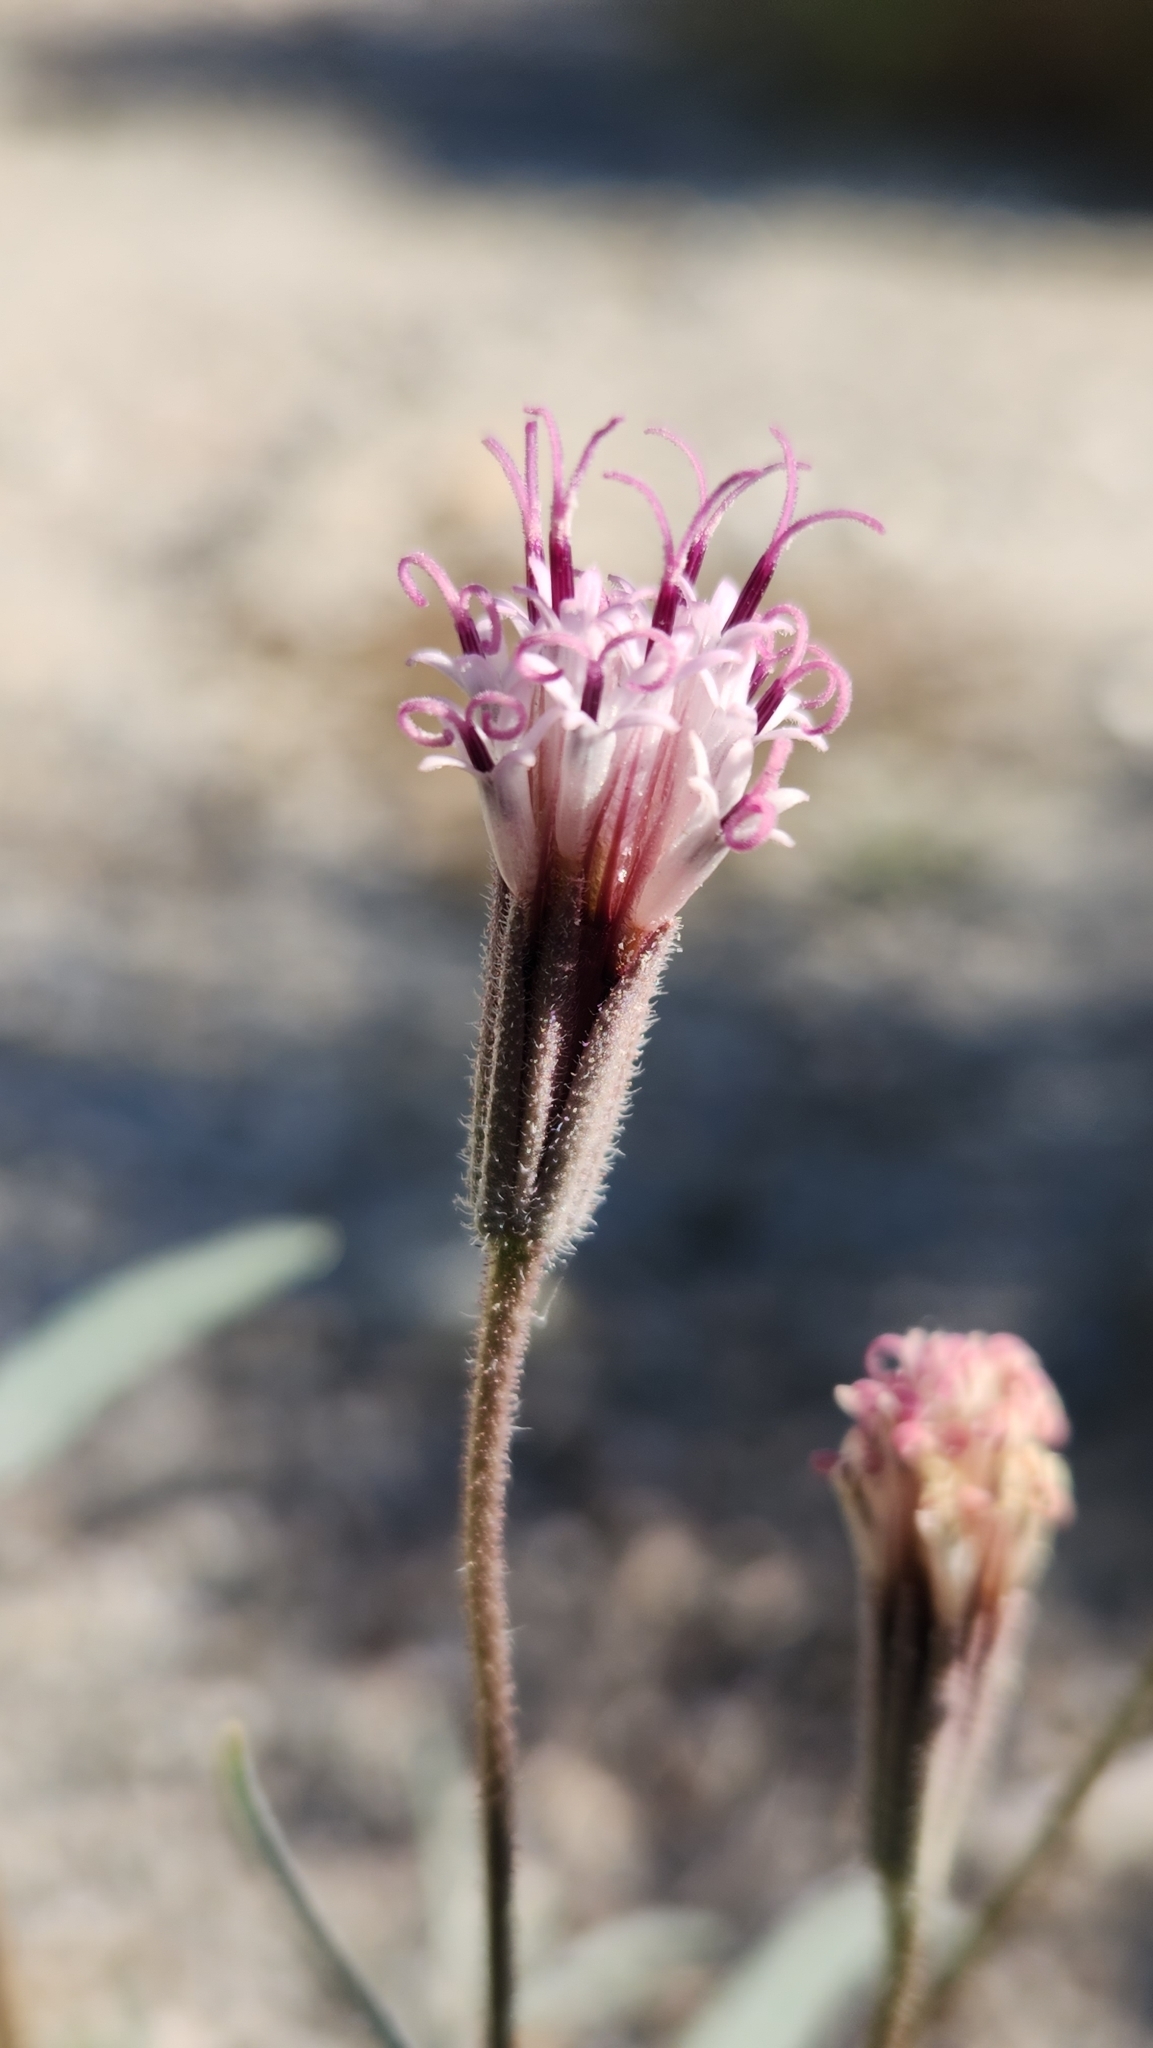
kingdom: Plantae
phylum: Tracheophyta
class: Magnoliopsida
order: Asterales
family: Asteraceae
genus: Palafoxia
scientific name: Palafoxia arida
